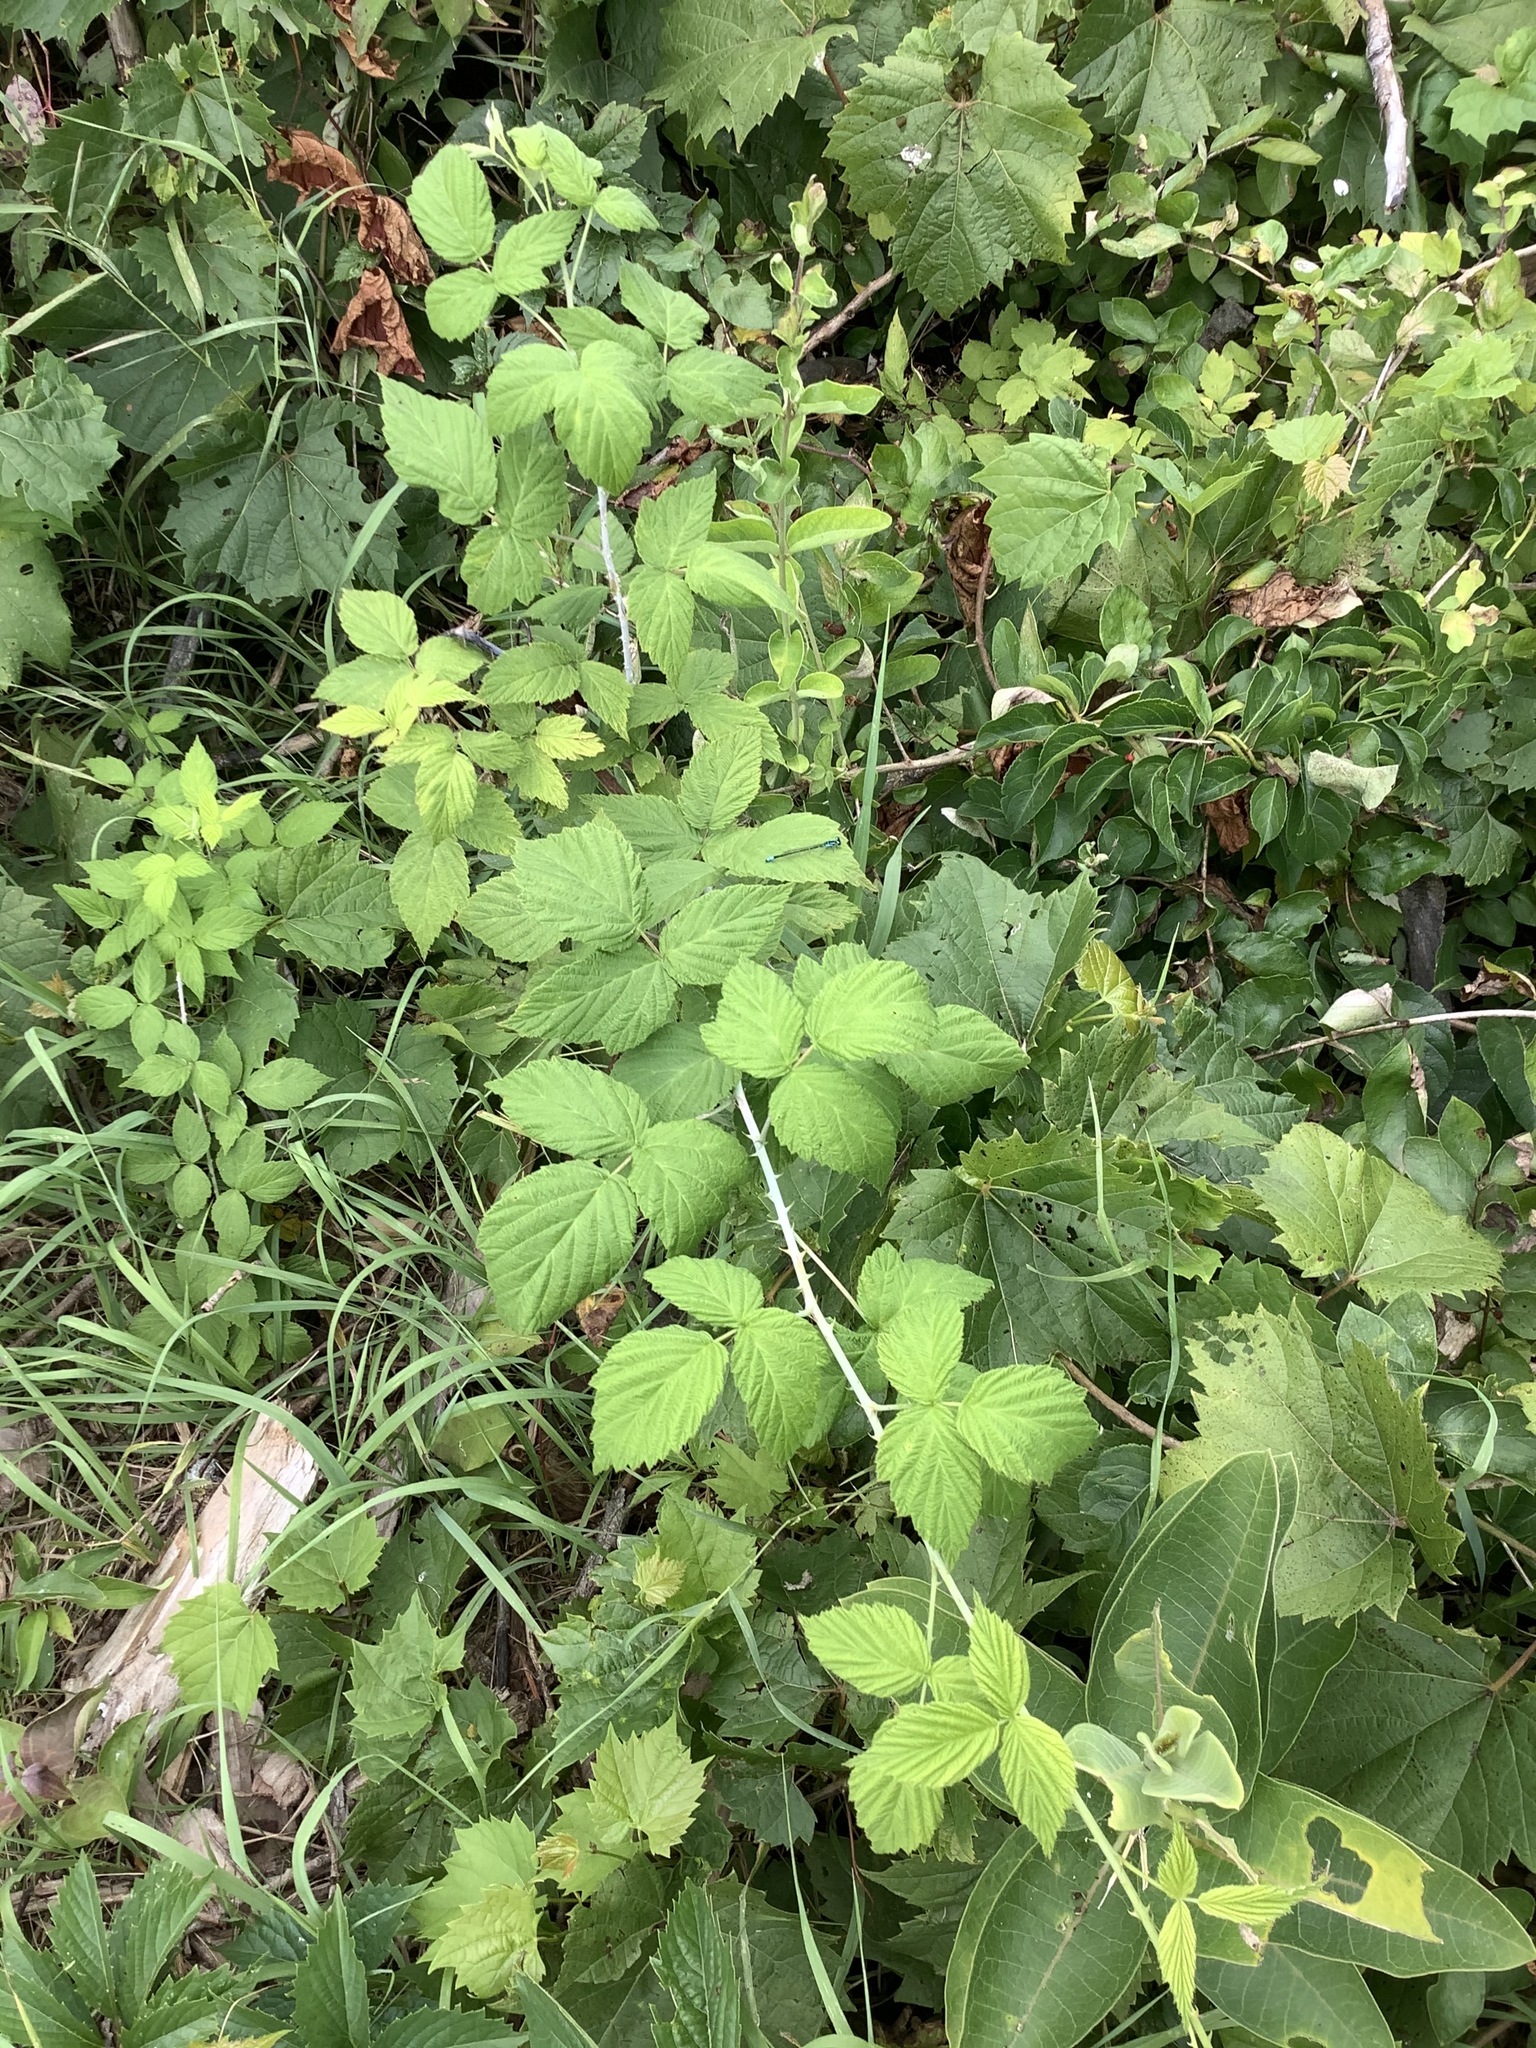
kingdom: Plantae
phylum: Tracheophyta
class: Magnoliopsida
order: Rosales
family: Rosaceae
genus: Rubus
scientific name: Rubus occidentalis
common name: Black raspberry
